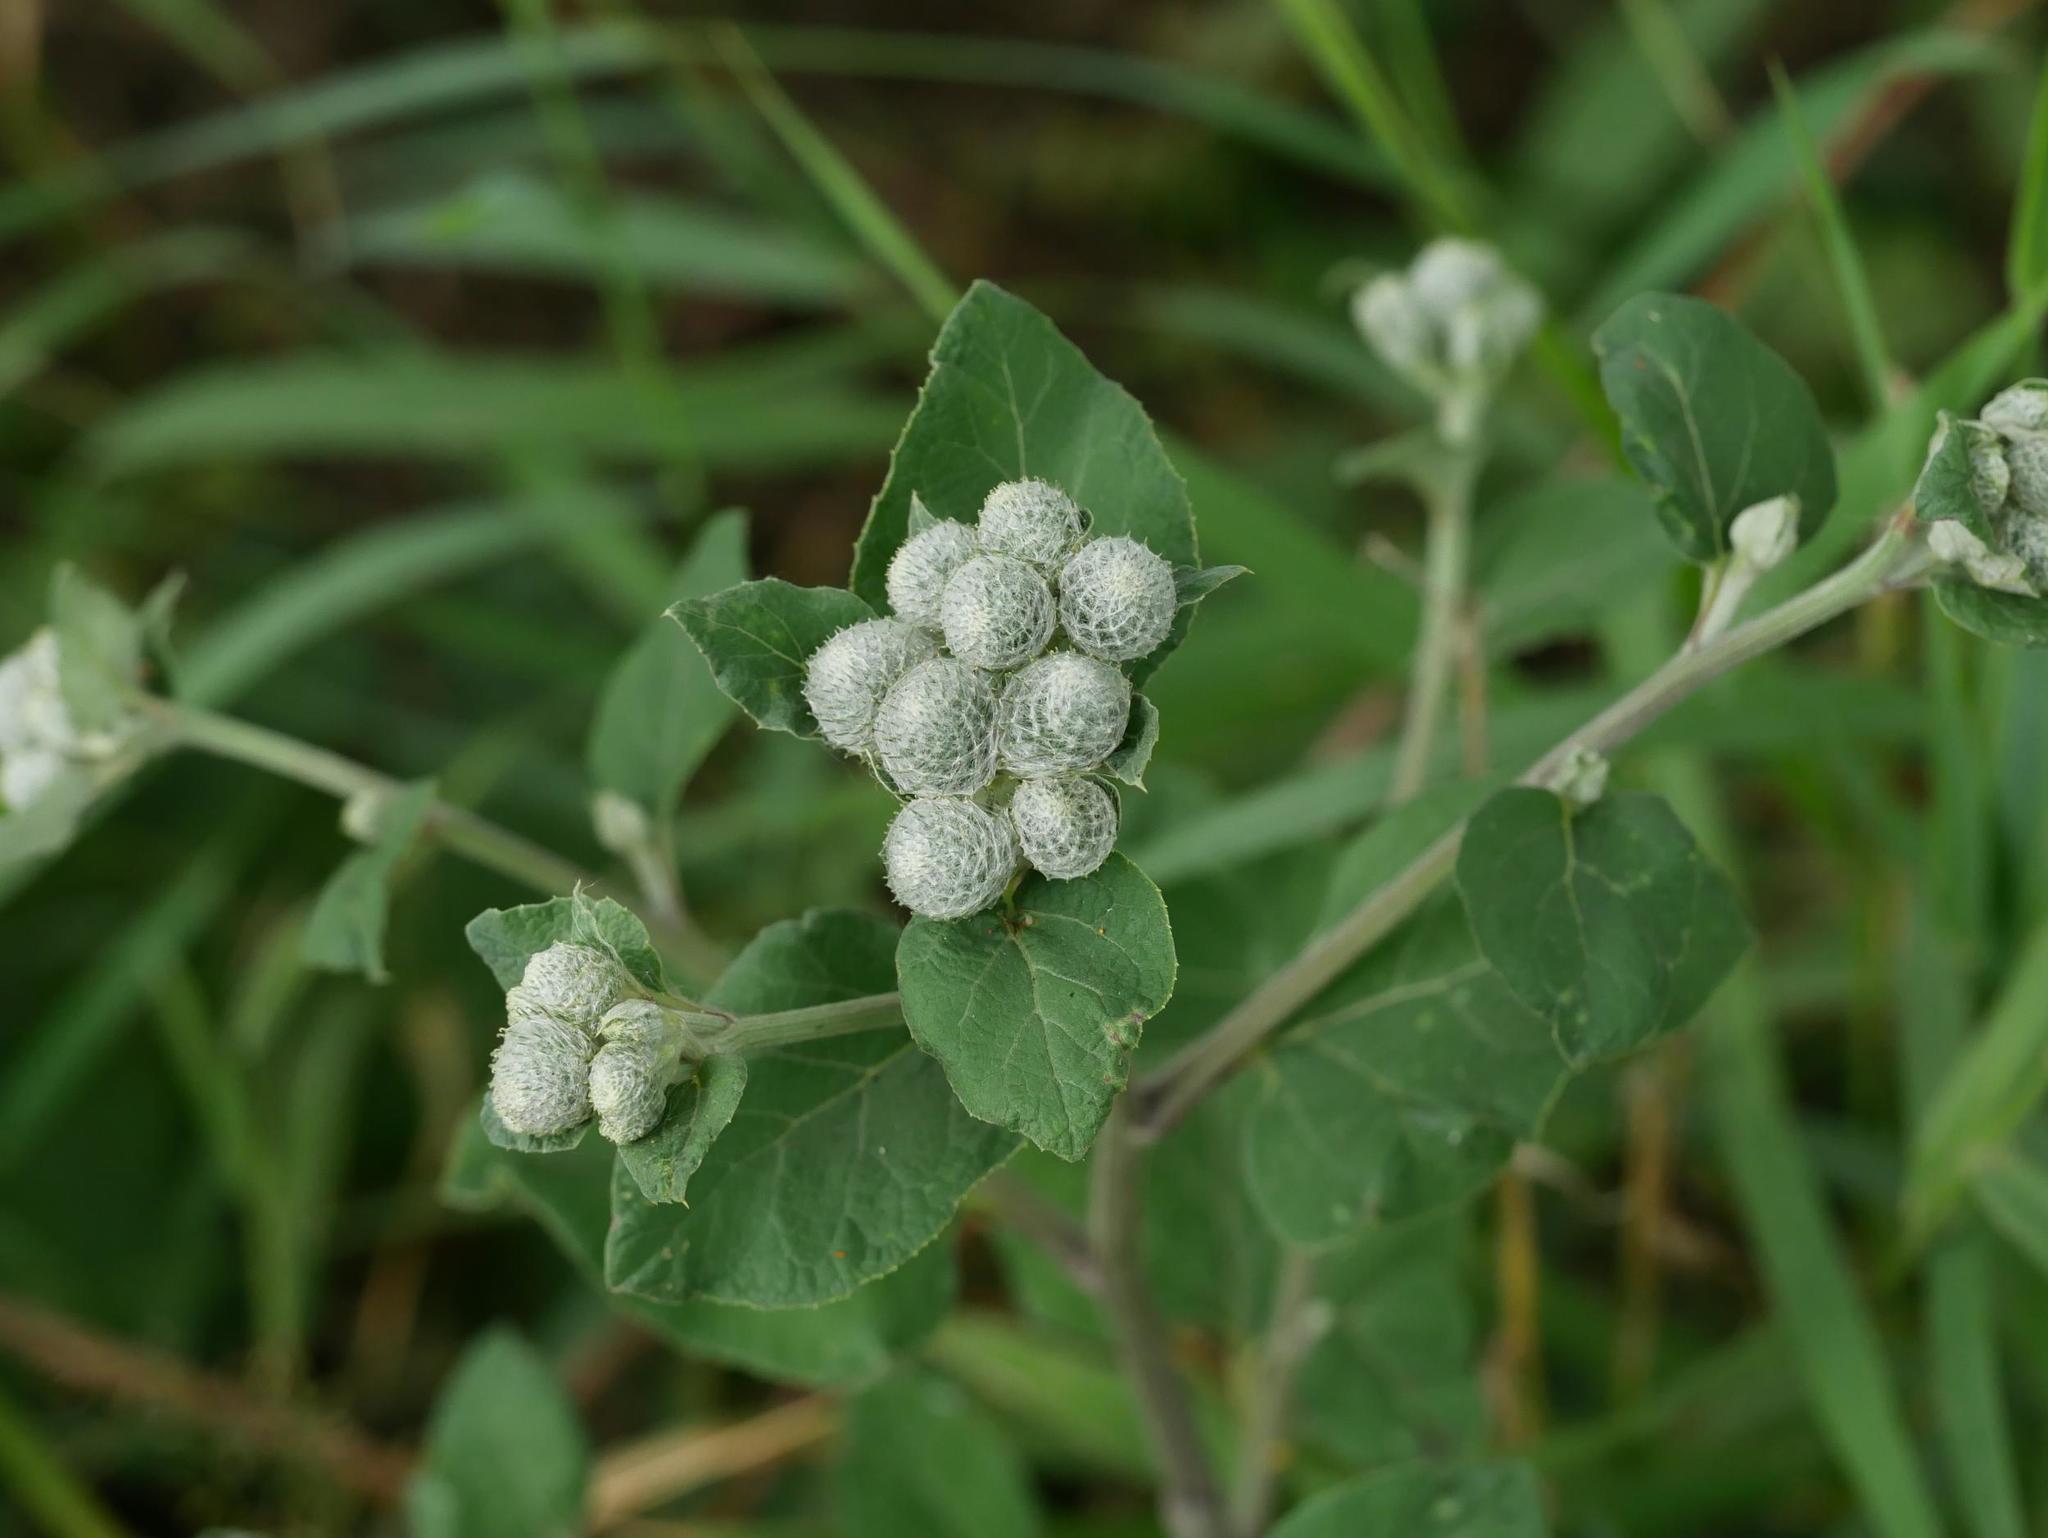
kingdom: Plantae
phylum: Tracheophyta
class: Magnoliopsida
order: Asterales
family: Asteraceae
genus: Arctium
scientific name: Arctium tomentosum
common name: Woolly burdock
